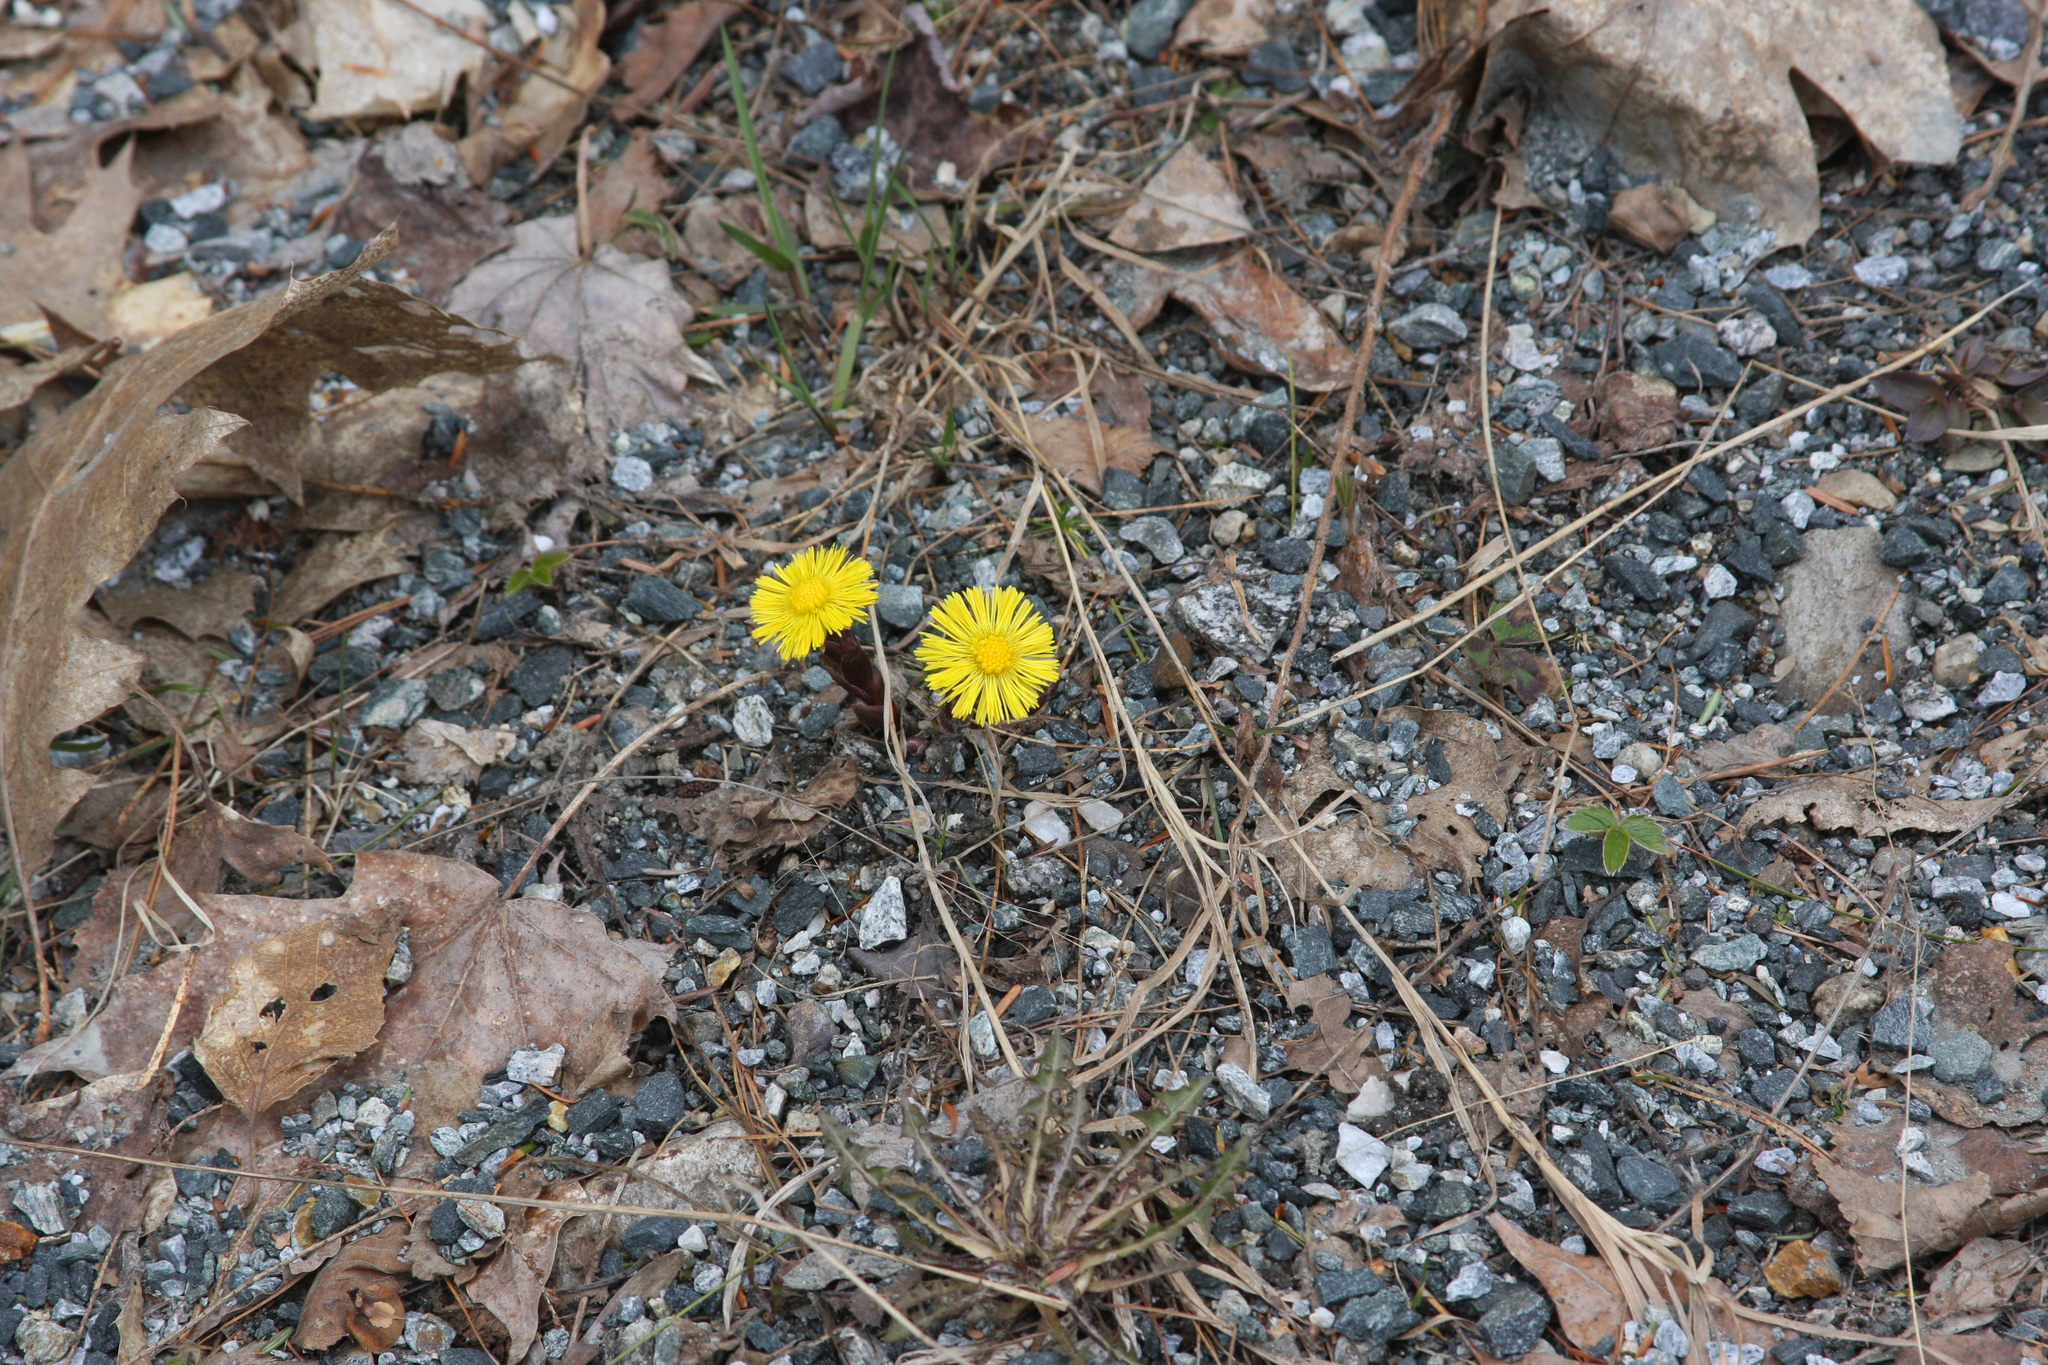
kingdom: Plantae
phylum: Tracheophyta
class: Magnoliopsida
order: Asterales
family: Asteraceae
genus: Tussilago
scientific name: Tussilago farfara
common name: Coltsfoot
